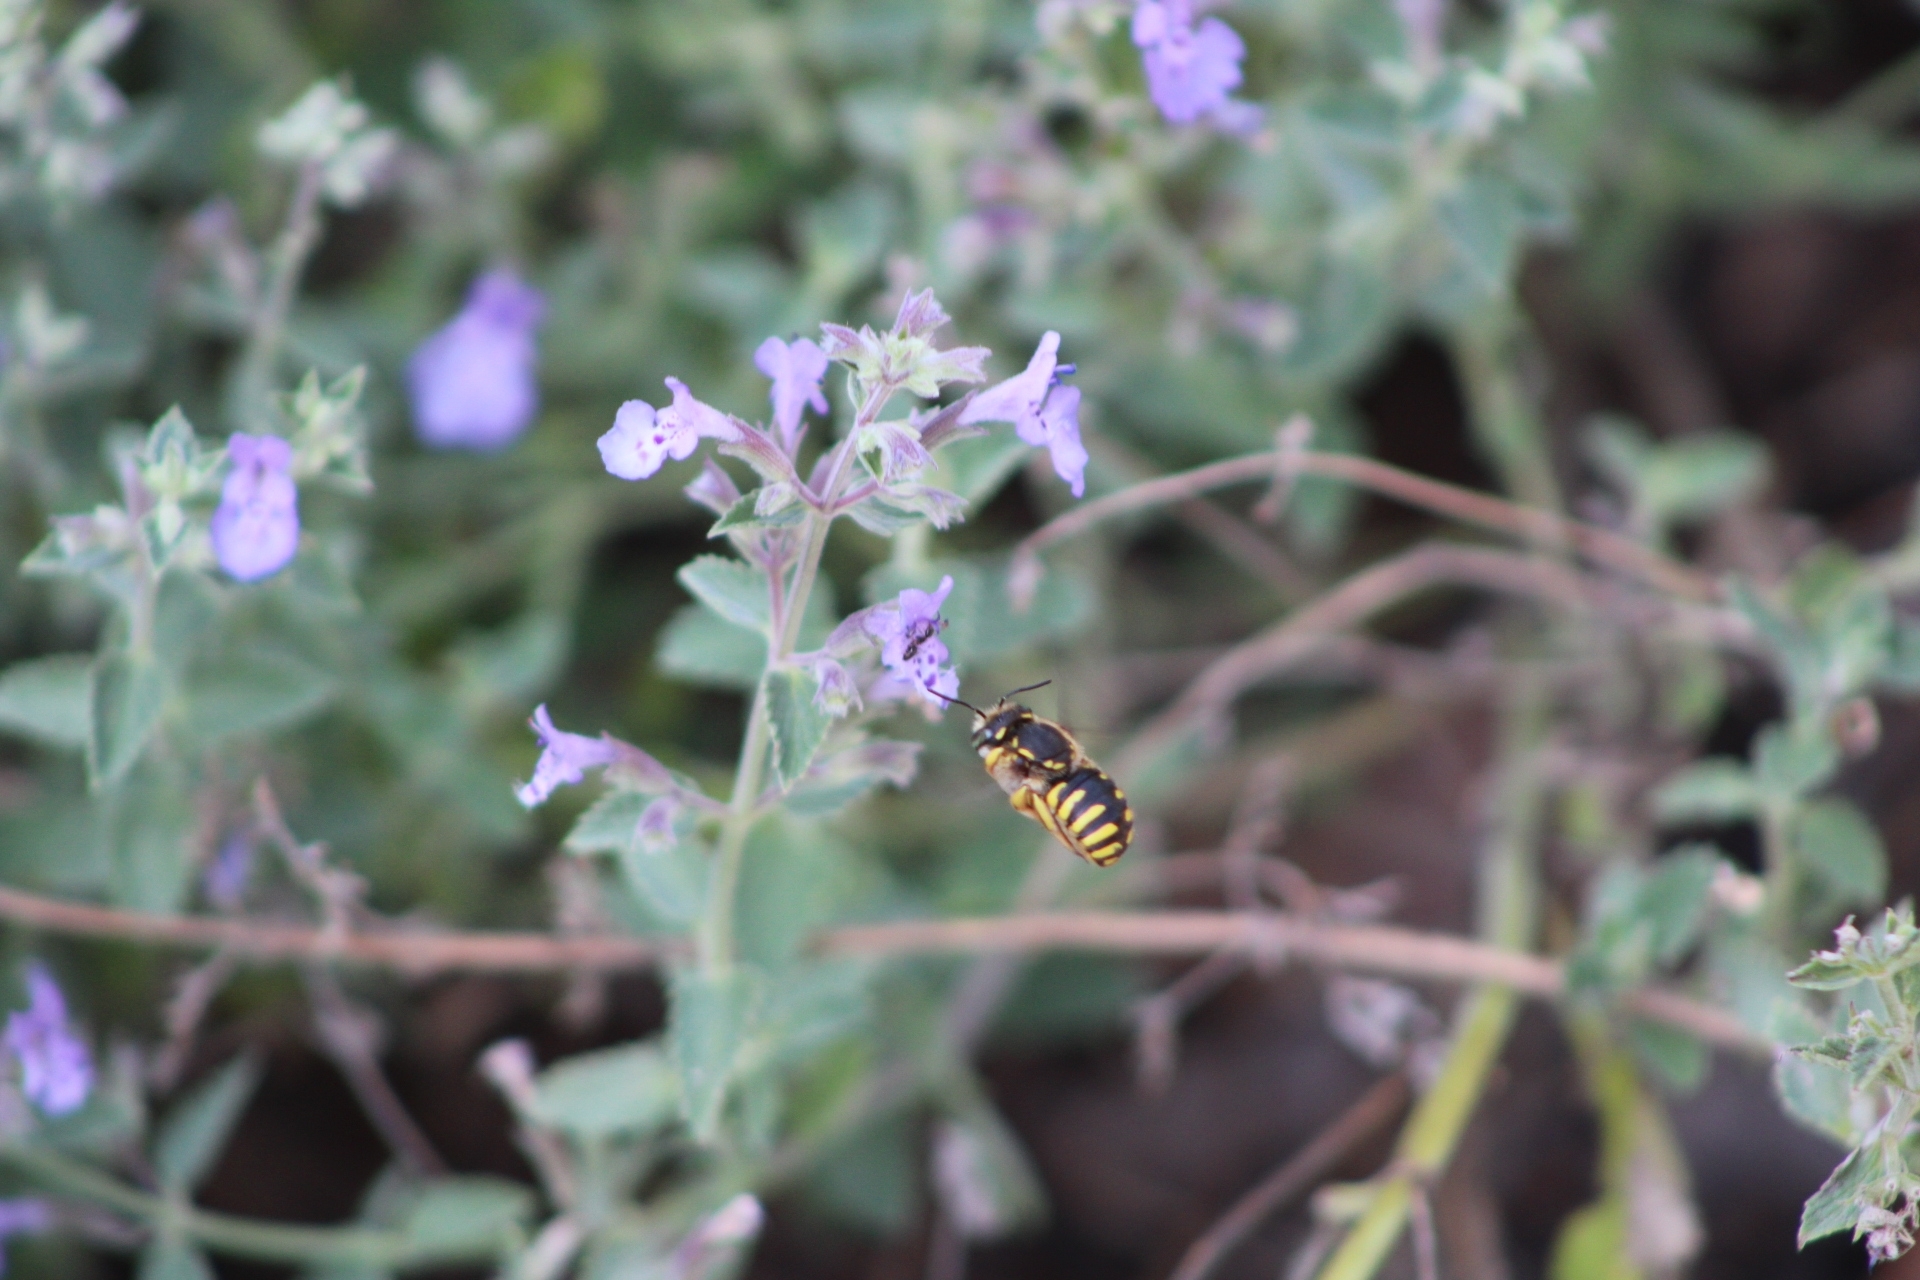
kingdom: Animalia
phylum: Arthropoda
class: Insecta
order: Hymenoptera
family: Megachilidae
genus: Anthidium
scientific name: Anthidium manicatum
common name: Wool carder bee
